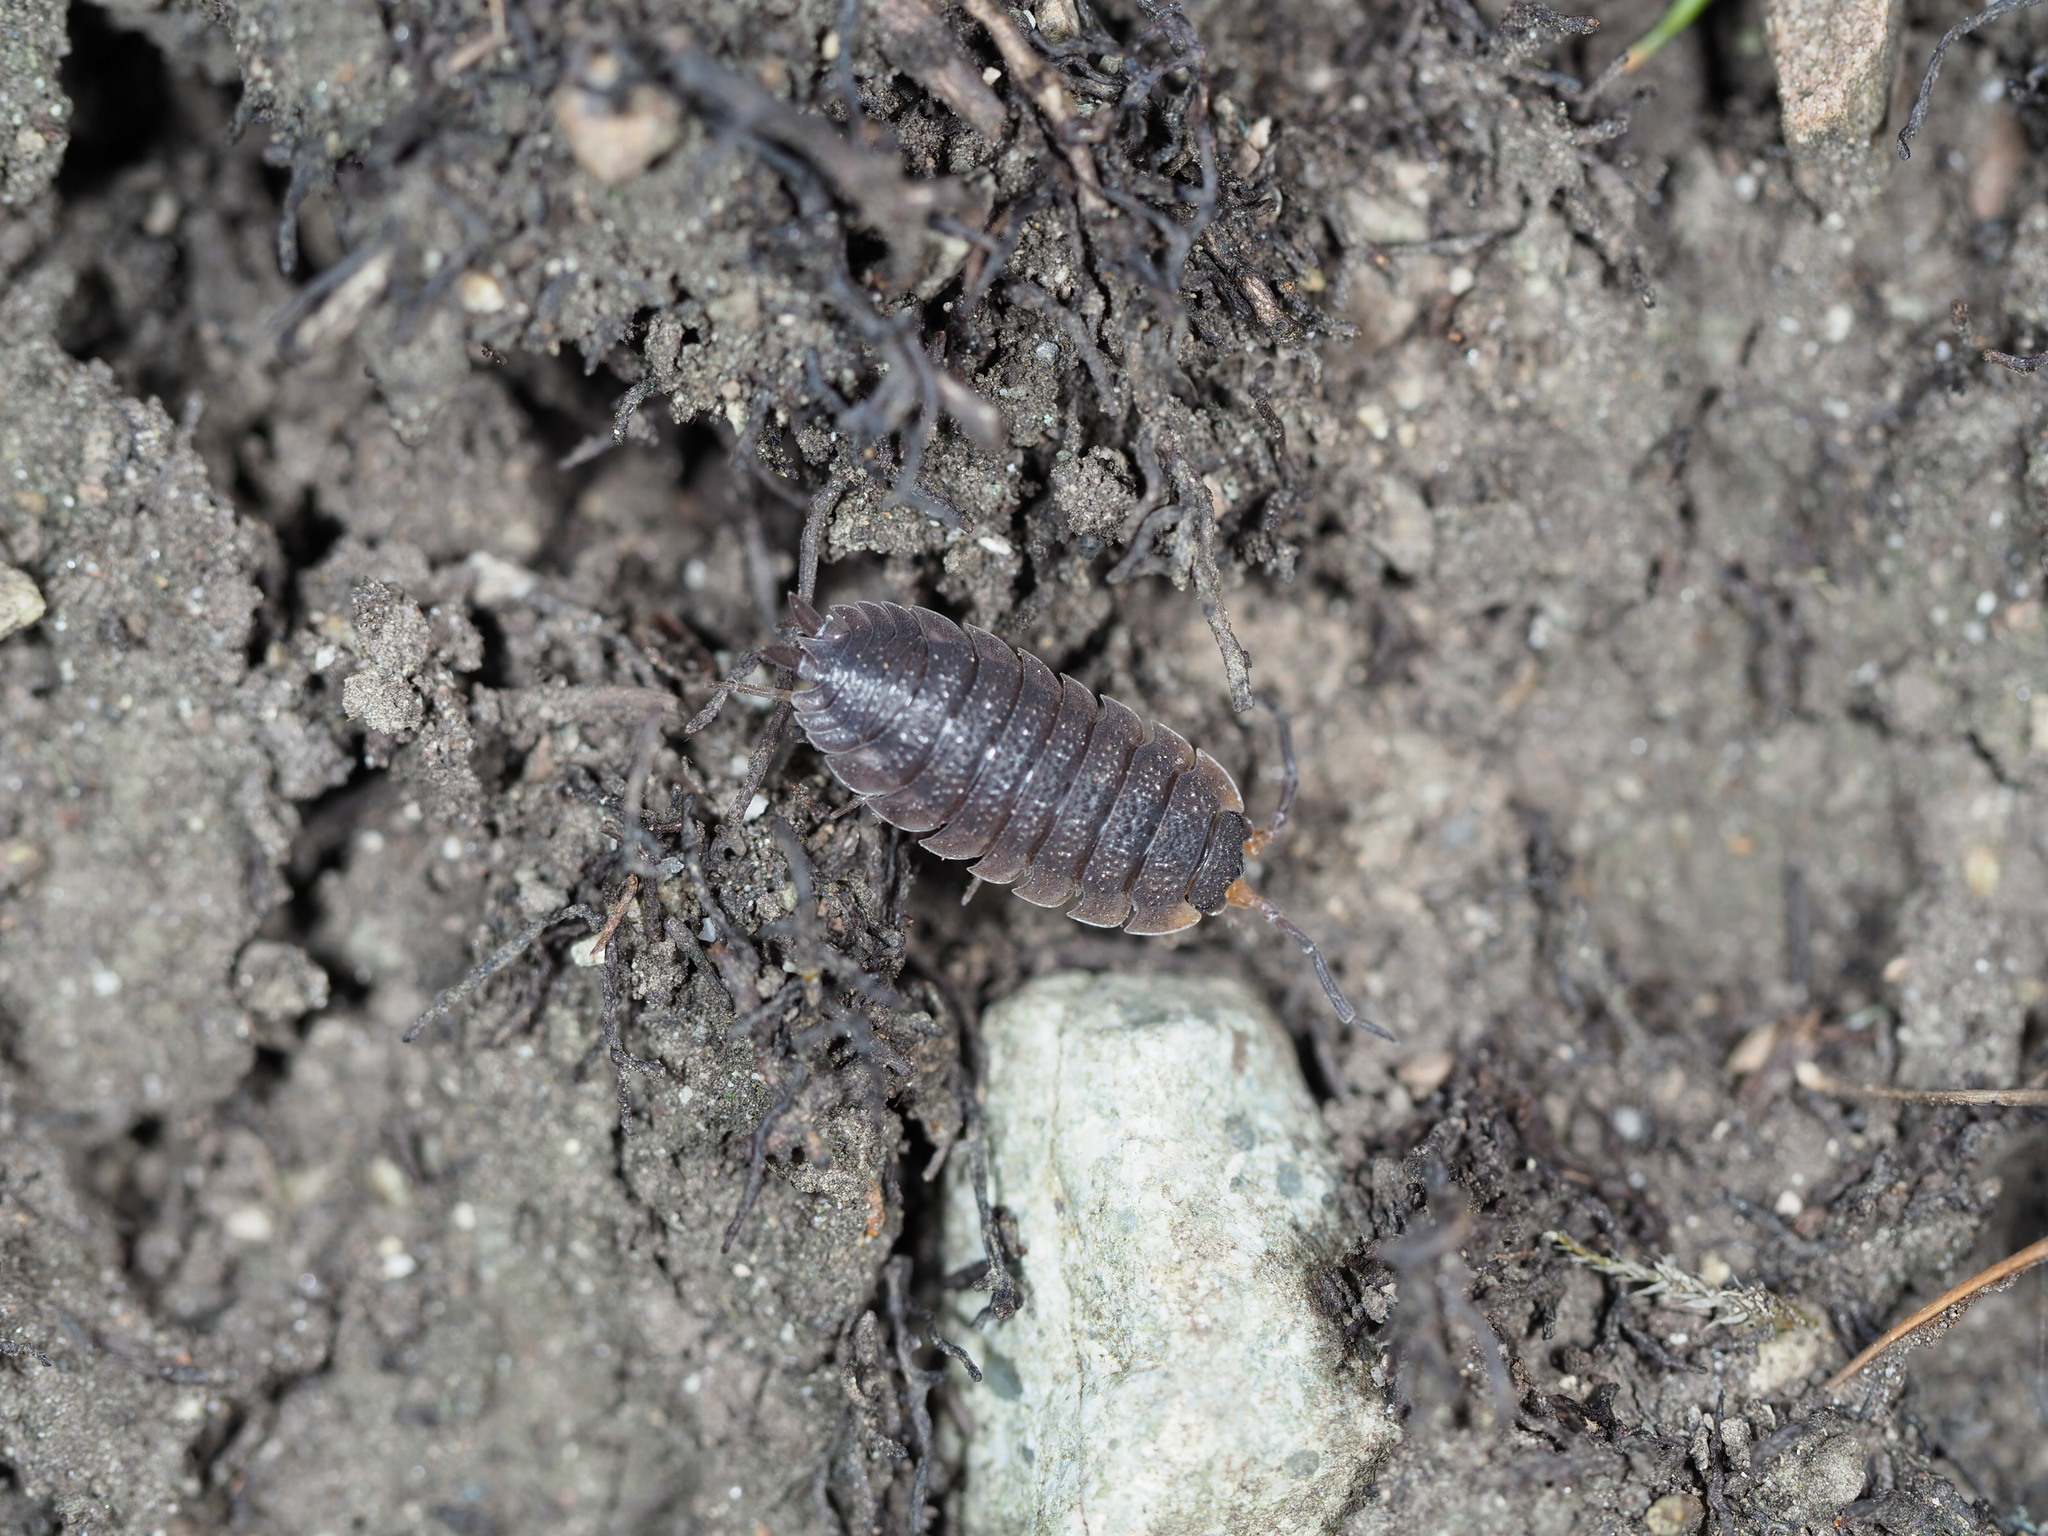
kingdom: Animalia
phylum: Arthropoda
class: Malacostraca
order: Isopoda
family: Porcellionidae
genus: Porcellio
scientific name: Porcellio scaber
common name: Common rough woodlouse
